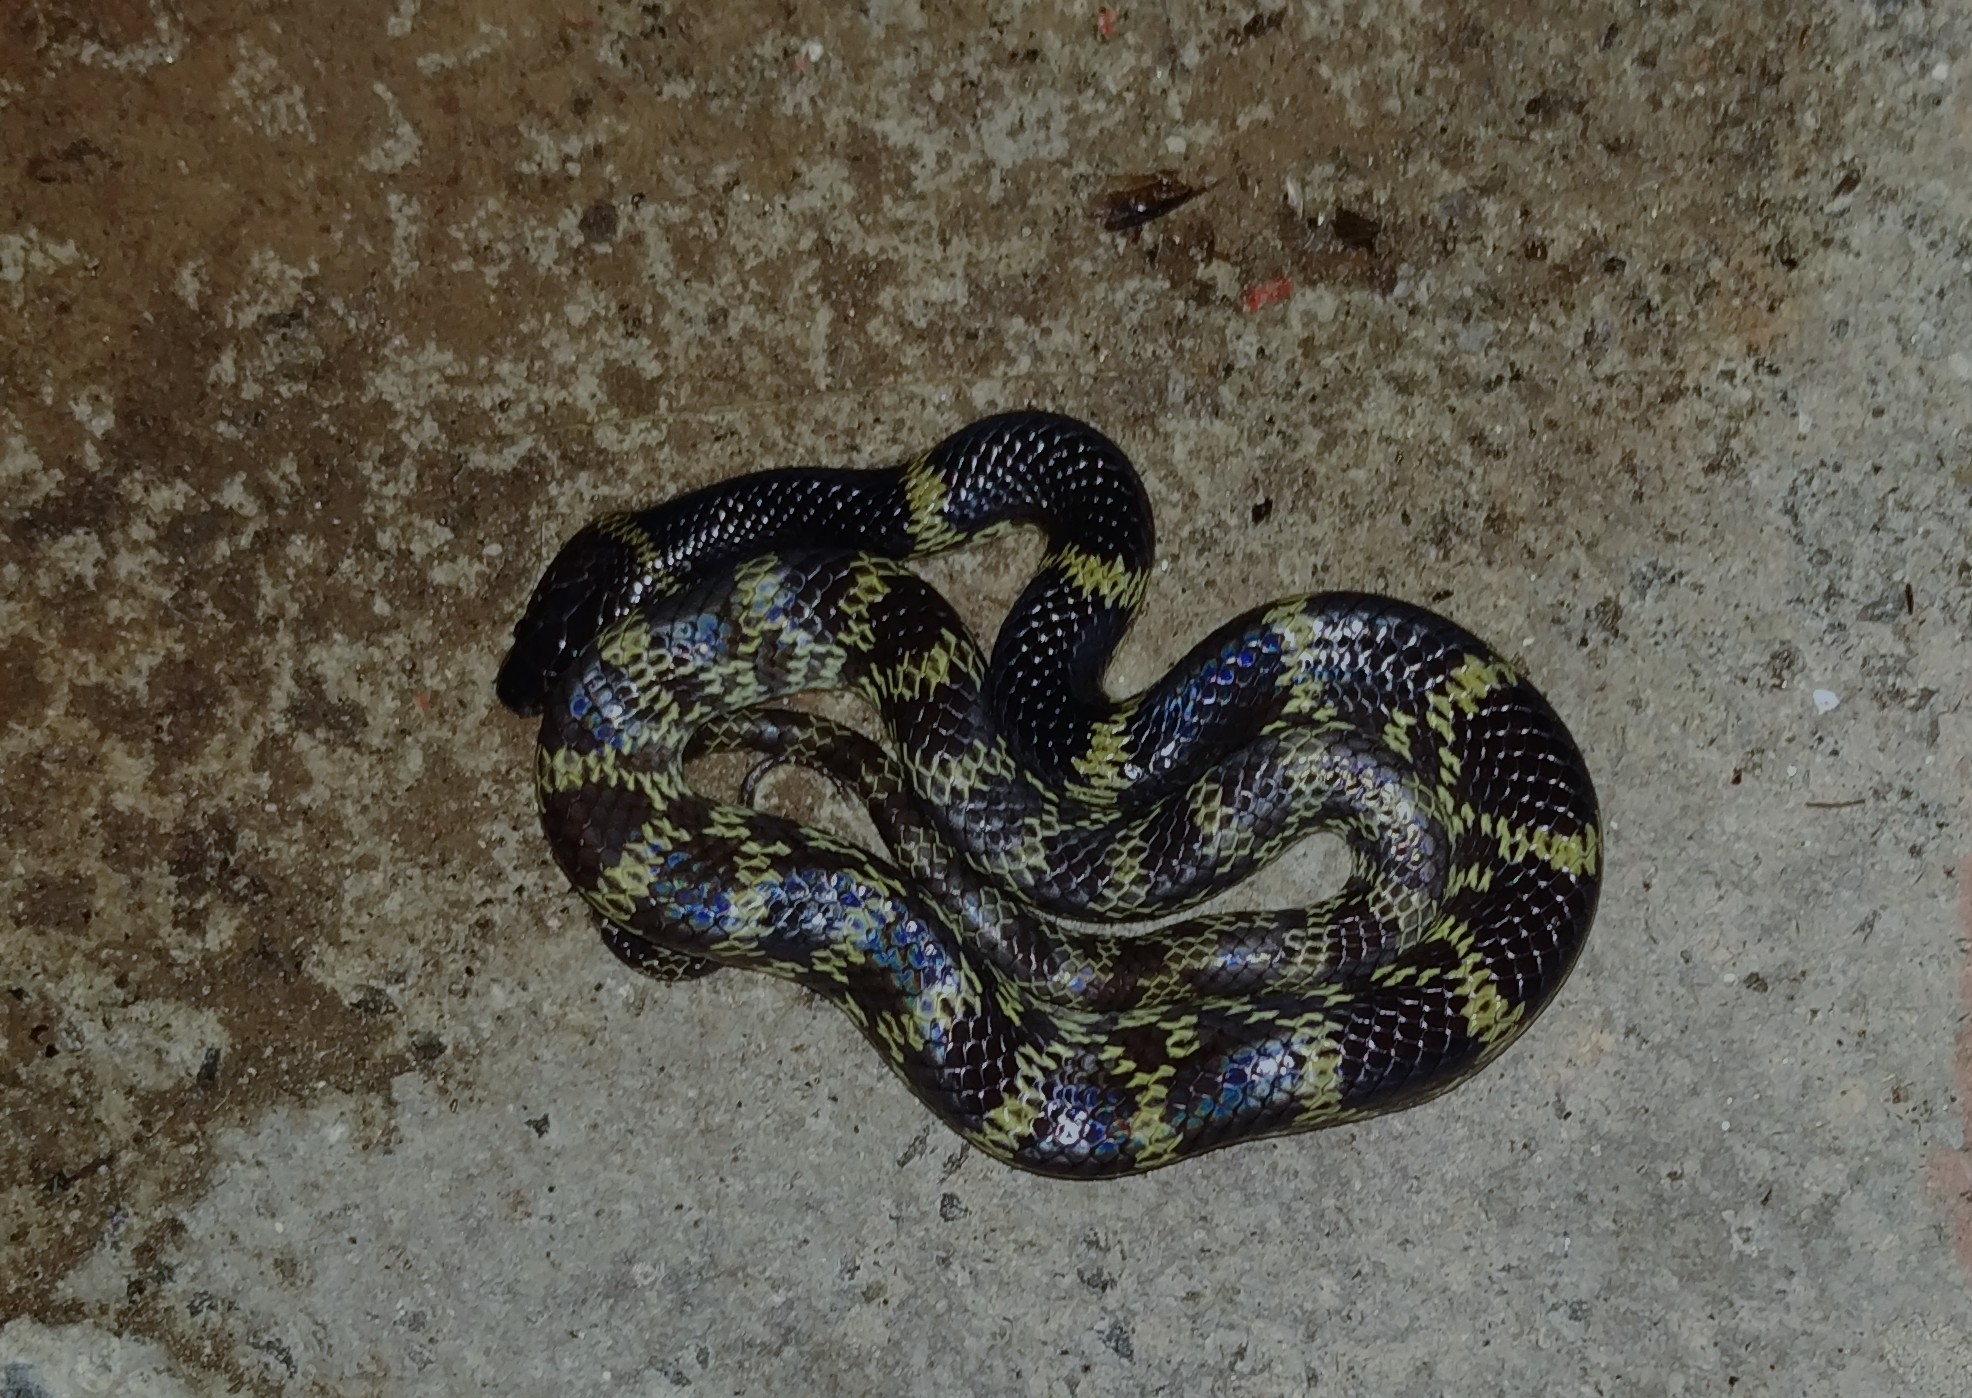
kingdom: Animalia
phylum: Chordata
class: Squamata
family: Colubridae
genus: Lycodon
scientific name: Lycodon travancoricus
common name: Travancore wolf snake
